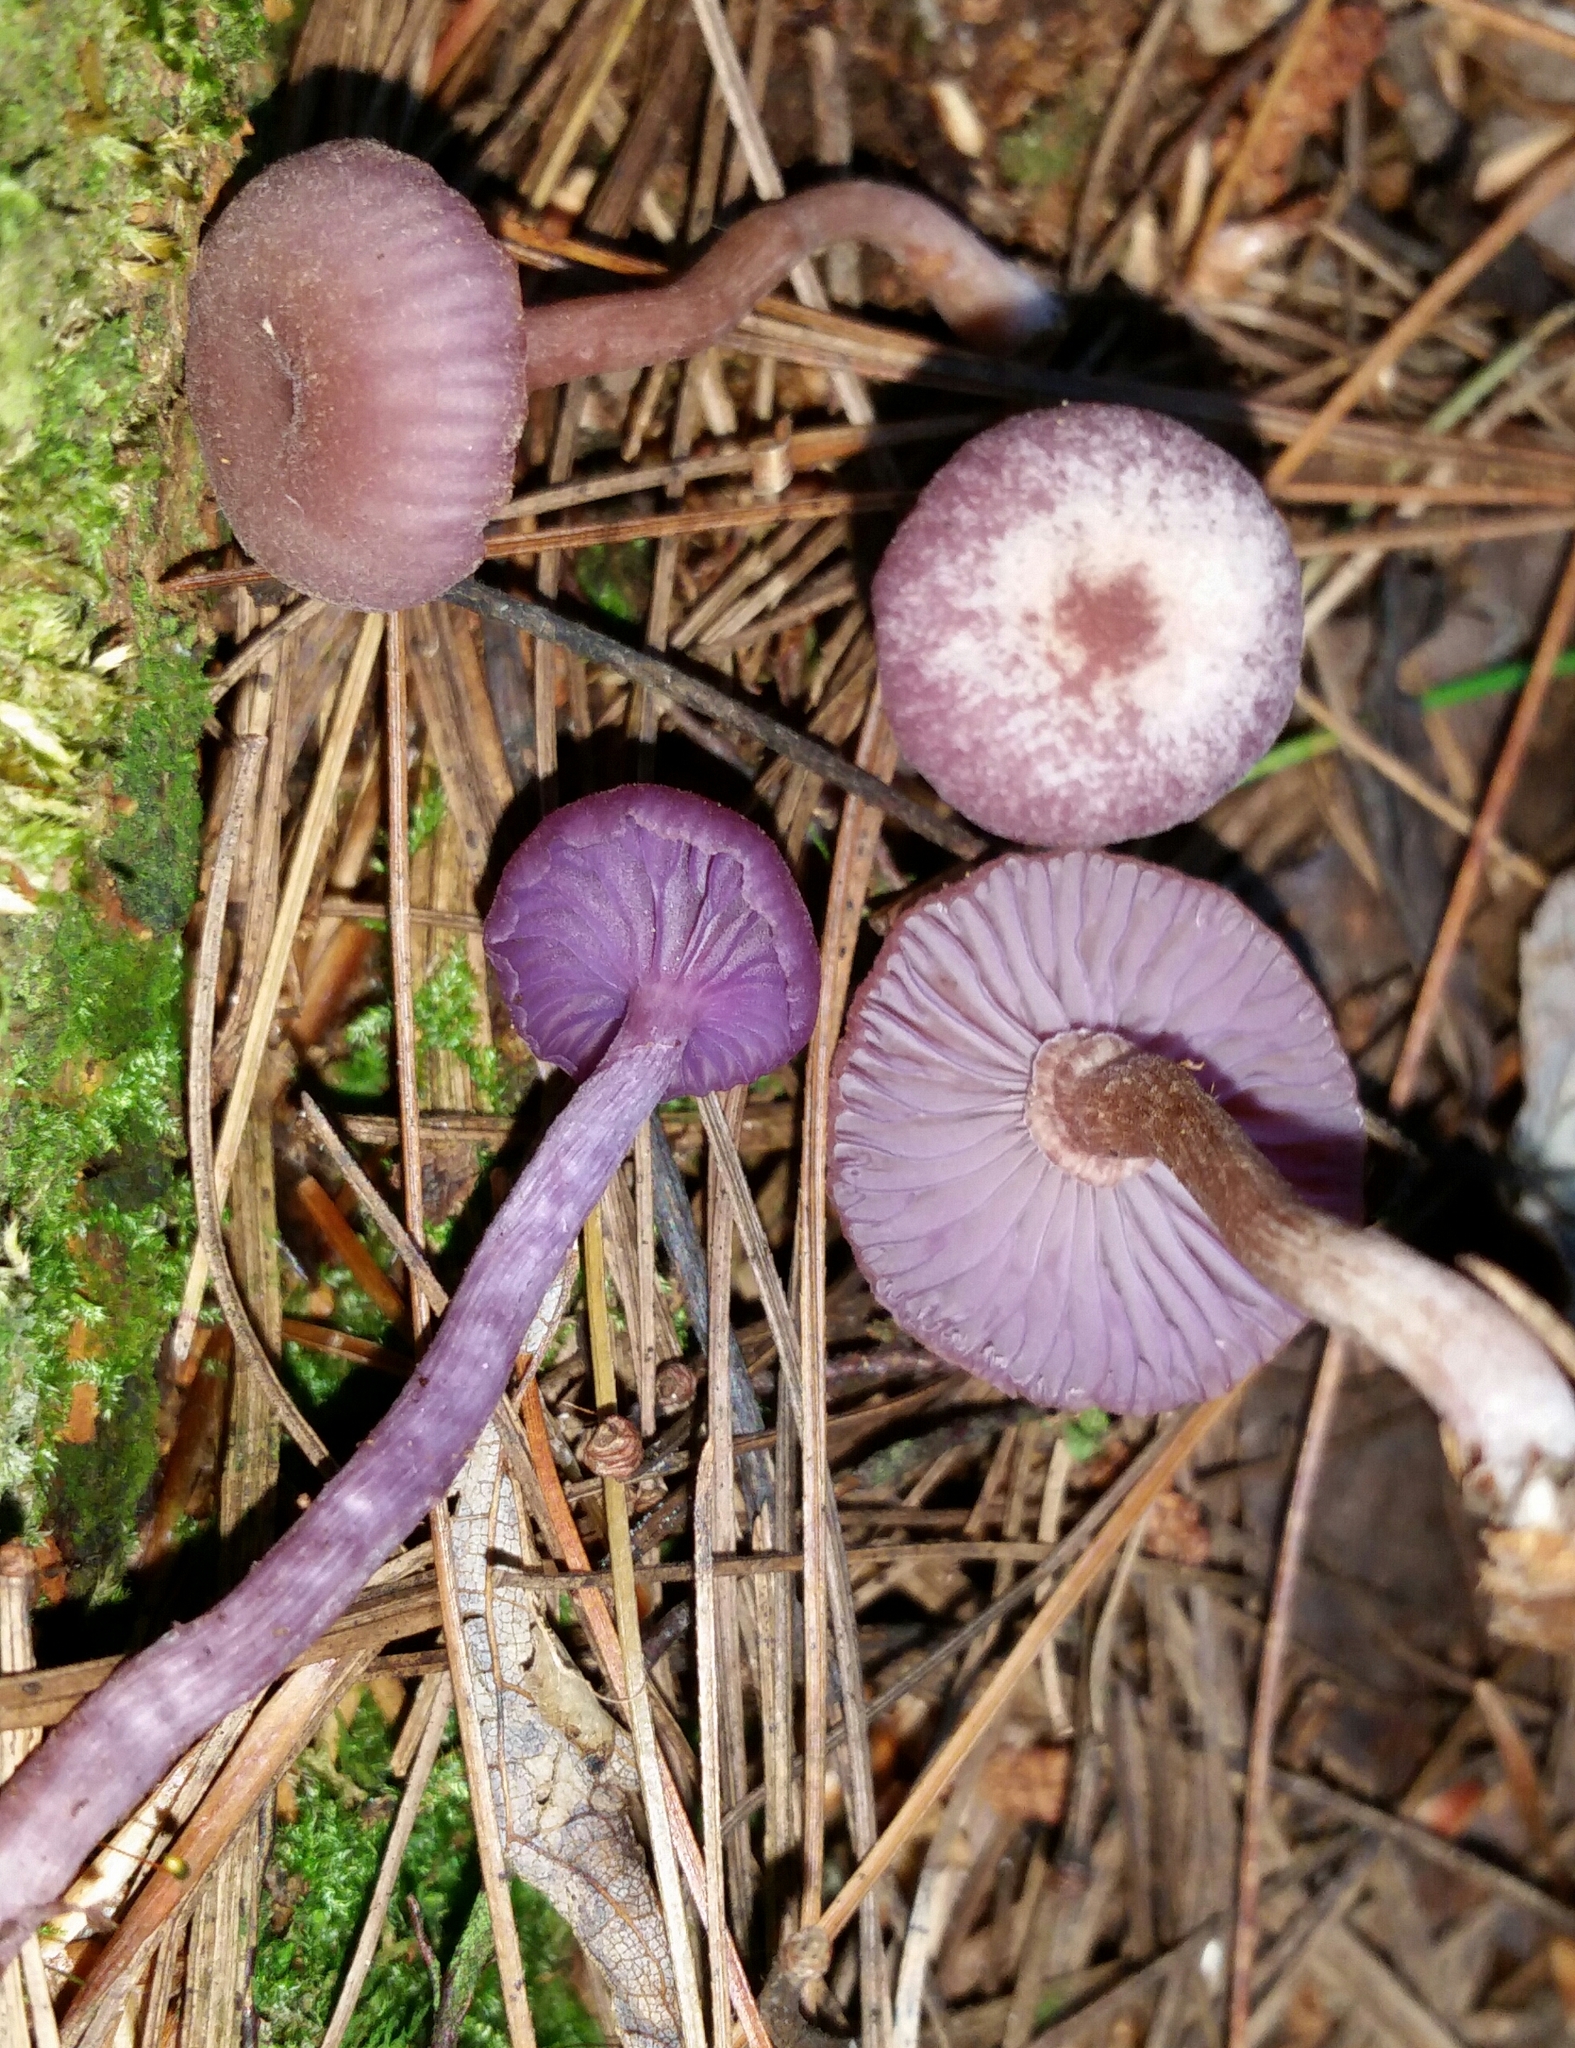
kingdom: Fungi
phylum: Basidiomycota
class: Agaricomycetes
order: Agaricales
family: Hydnangiaceae
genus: Laccaria
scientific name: Laccaria amethystina
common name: Amethyst deceiver
